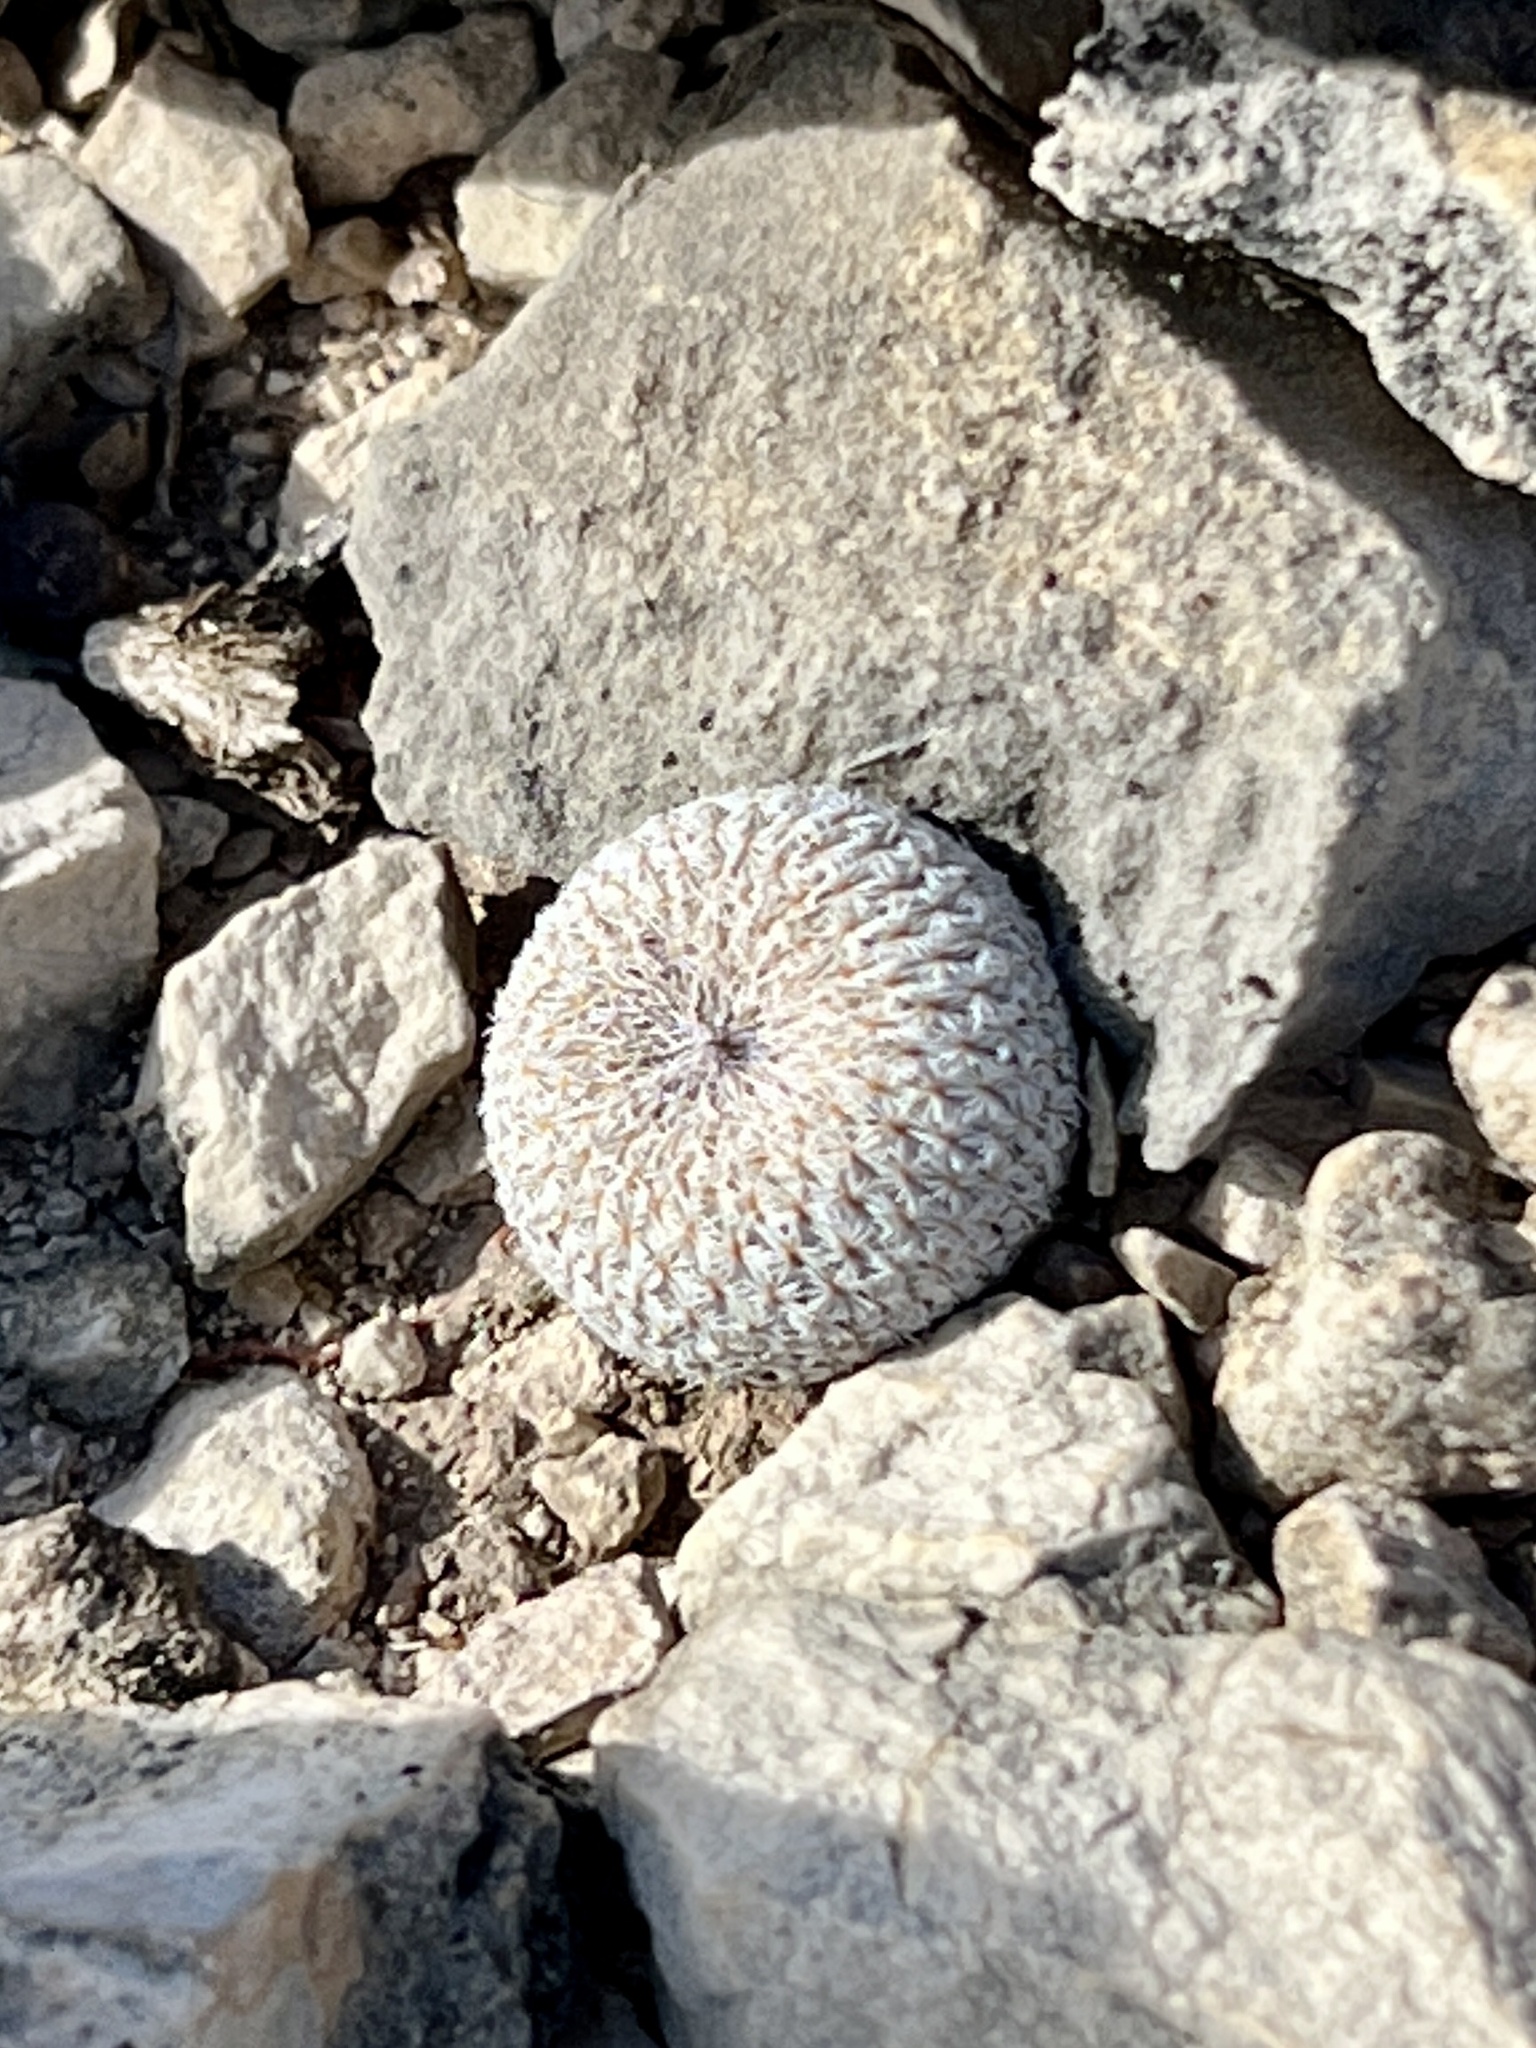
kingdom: Plantae
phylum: Tracheophyta
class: Magnoliopsida
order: Caryophyllales
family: Cactaceae
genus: Epithelantha
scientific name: Epithelantha micromeris
